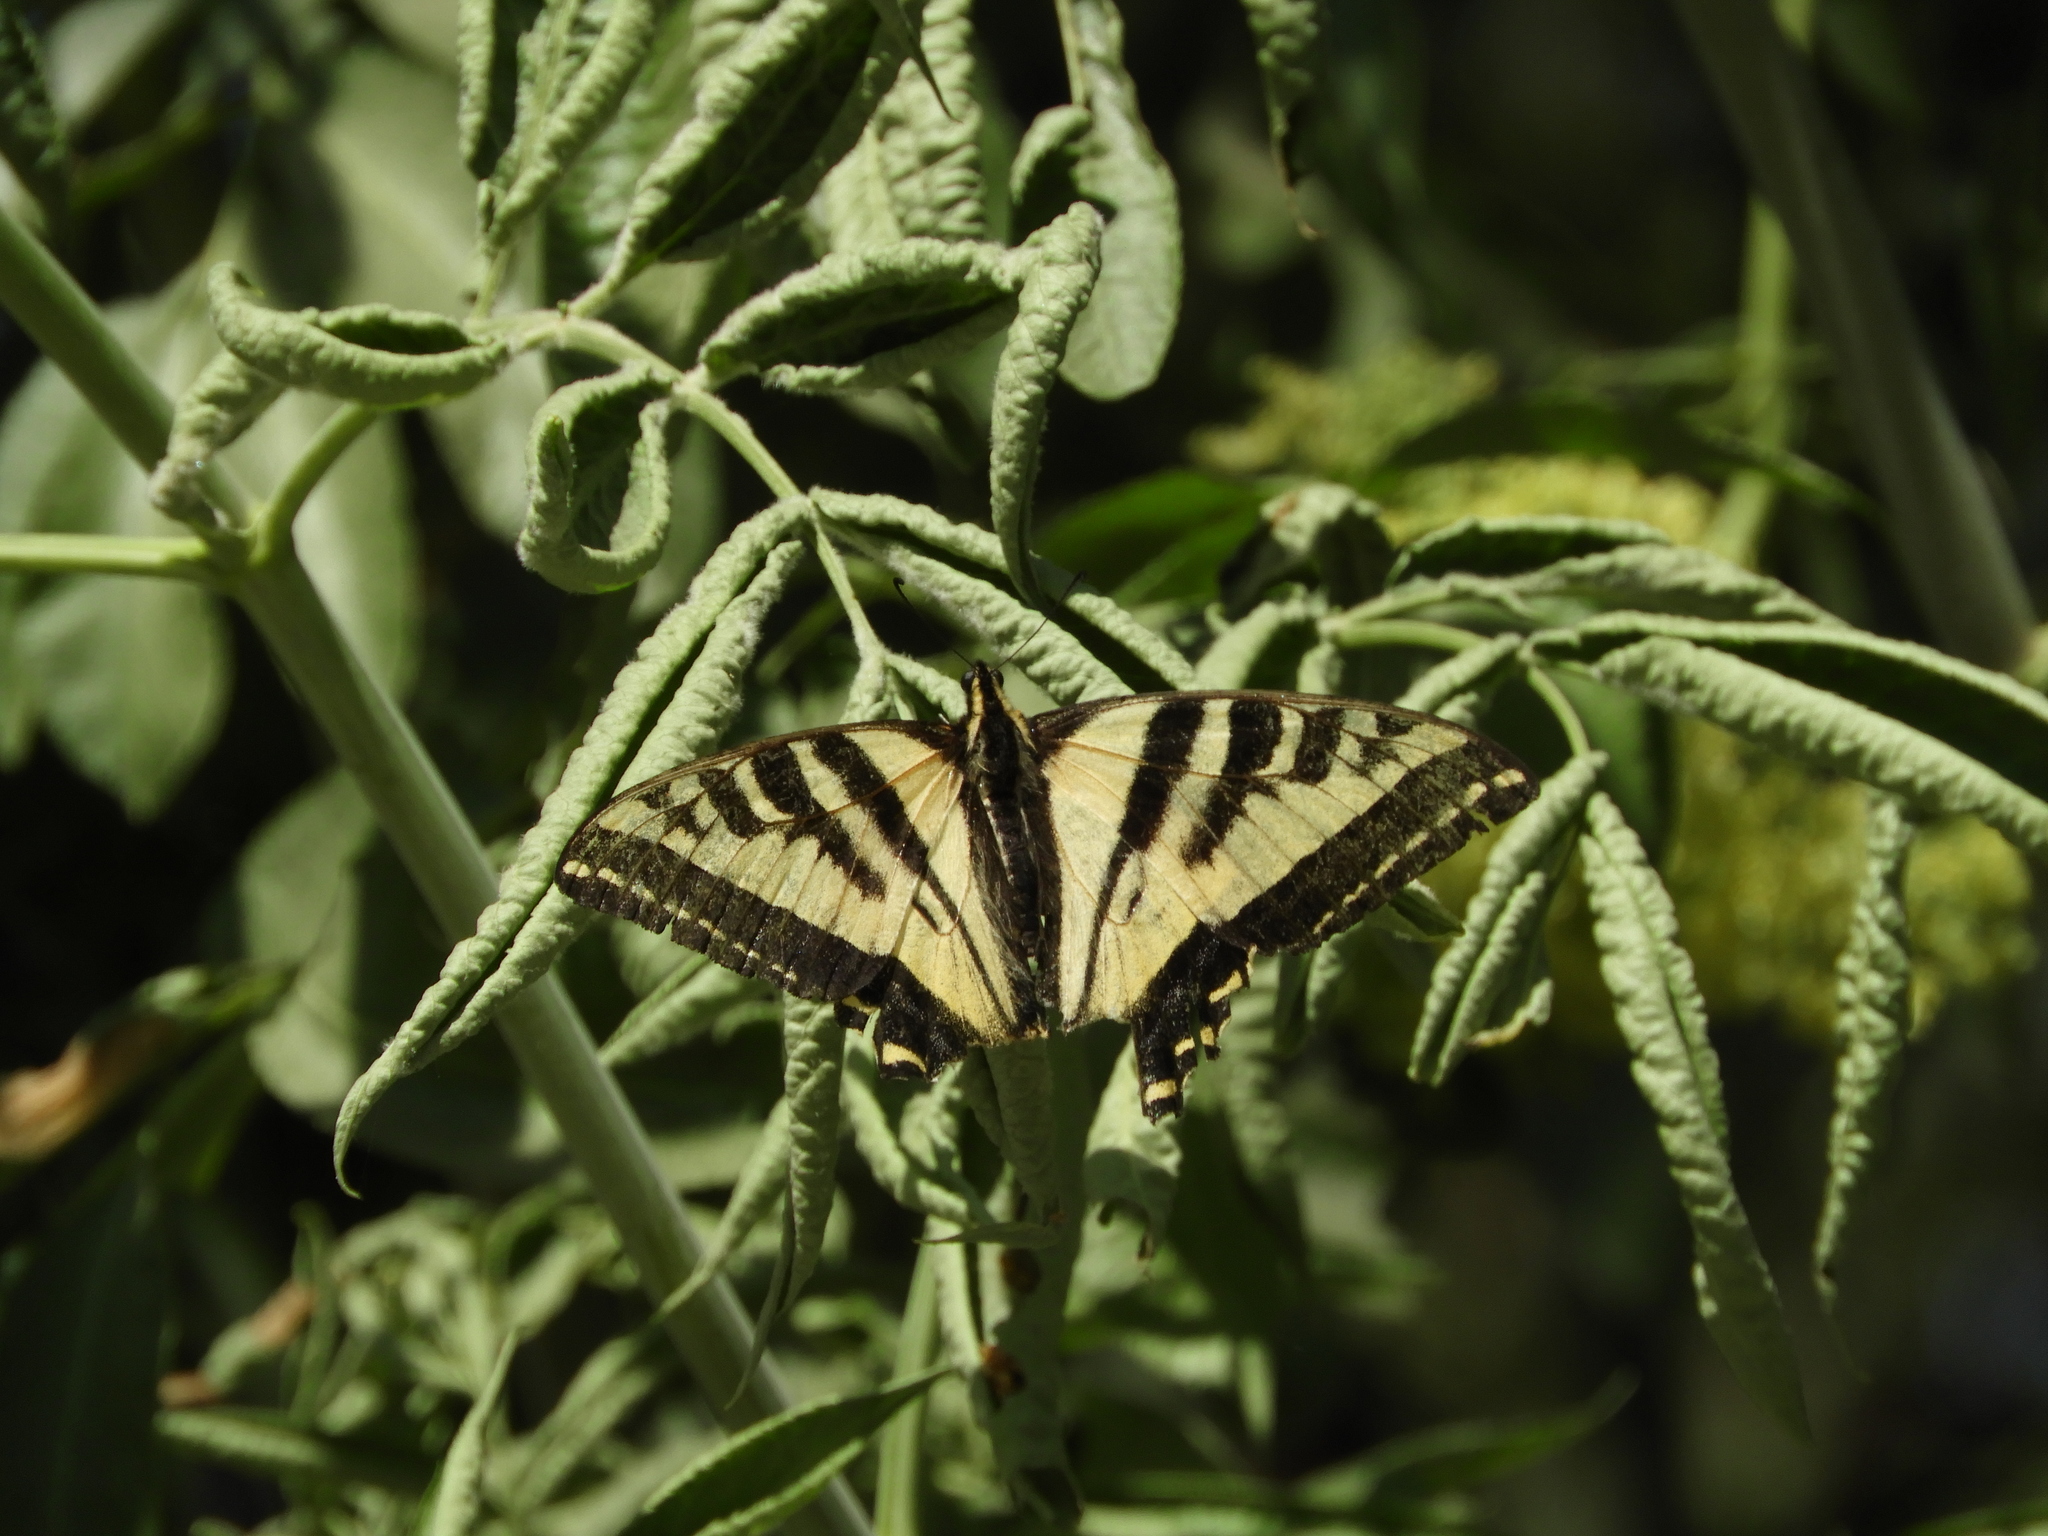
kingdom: Animalia
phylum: Arthropoda
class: Insecta
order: Lepidoptera
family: Papilionidae
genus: Papilio
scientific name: Papilio rutulus
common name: Western tiger swallowtail
